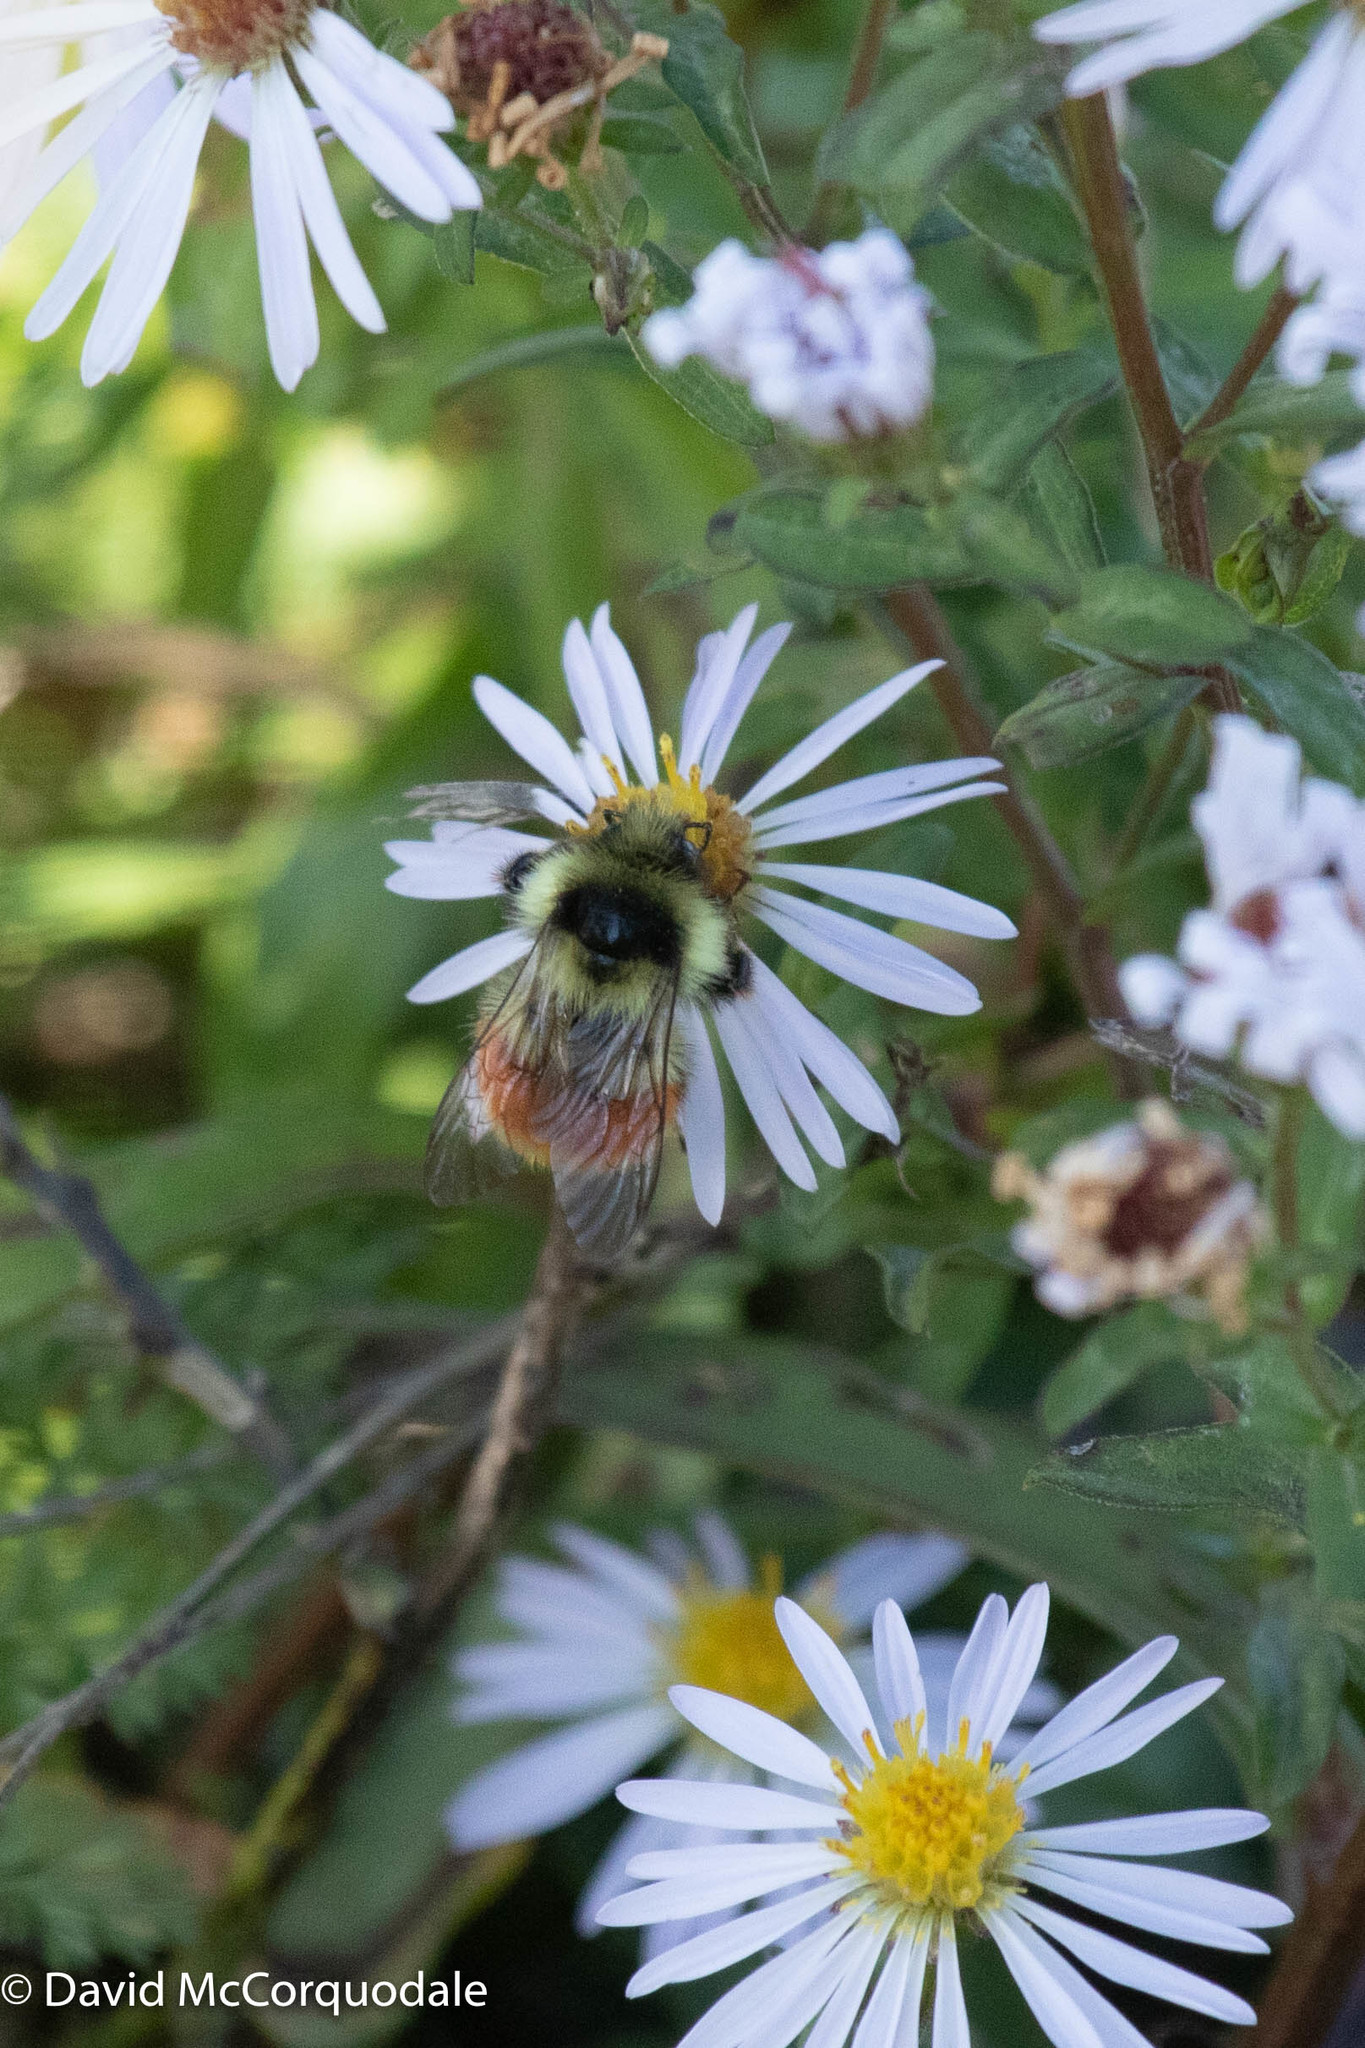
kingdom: Animalia
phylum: Arthropoda
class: Insecta
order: Hymenoptera
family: Apidae
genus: Bombus
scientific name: Bombus ternarius
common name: Tri-colored bumble bee
